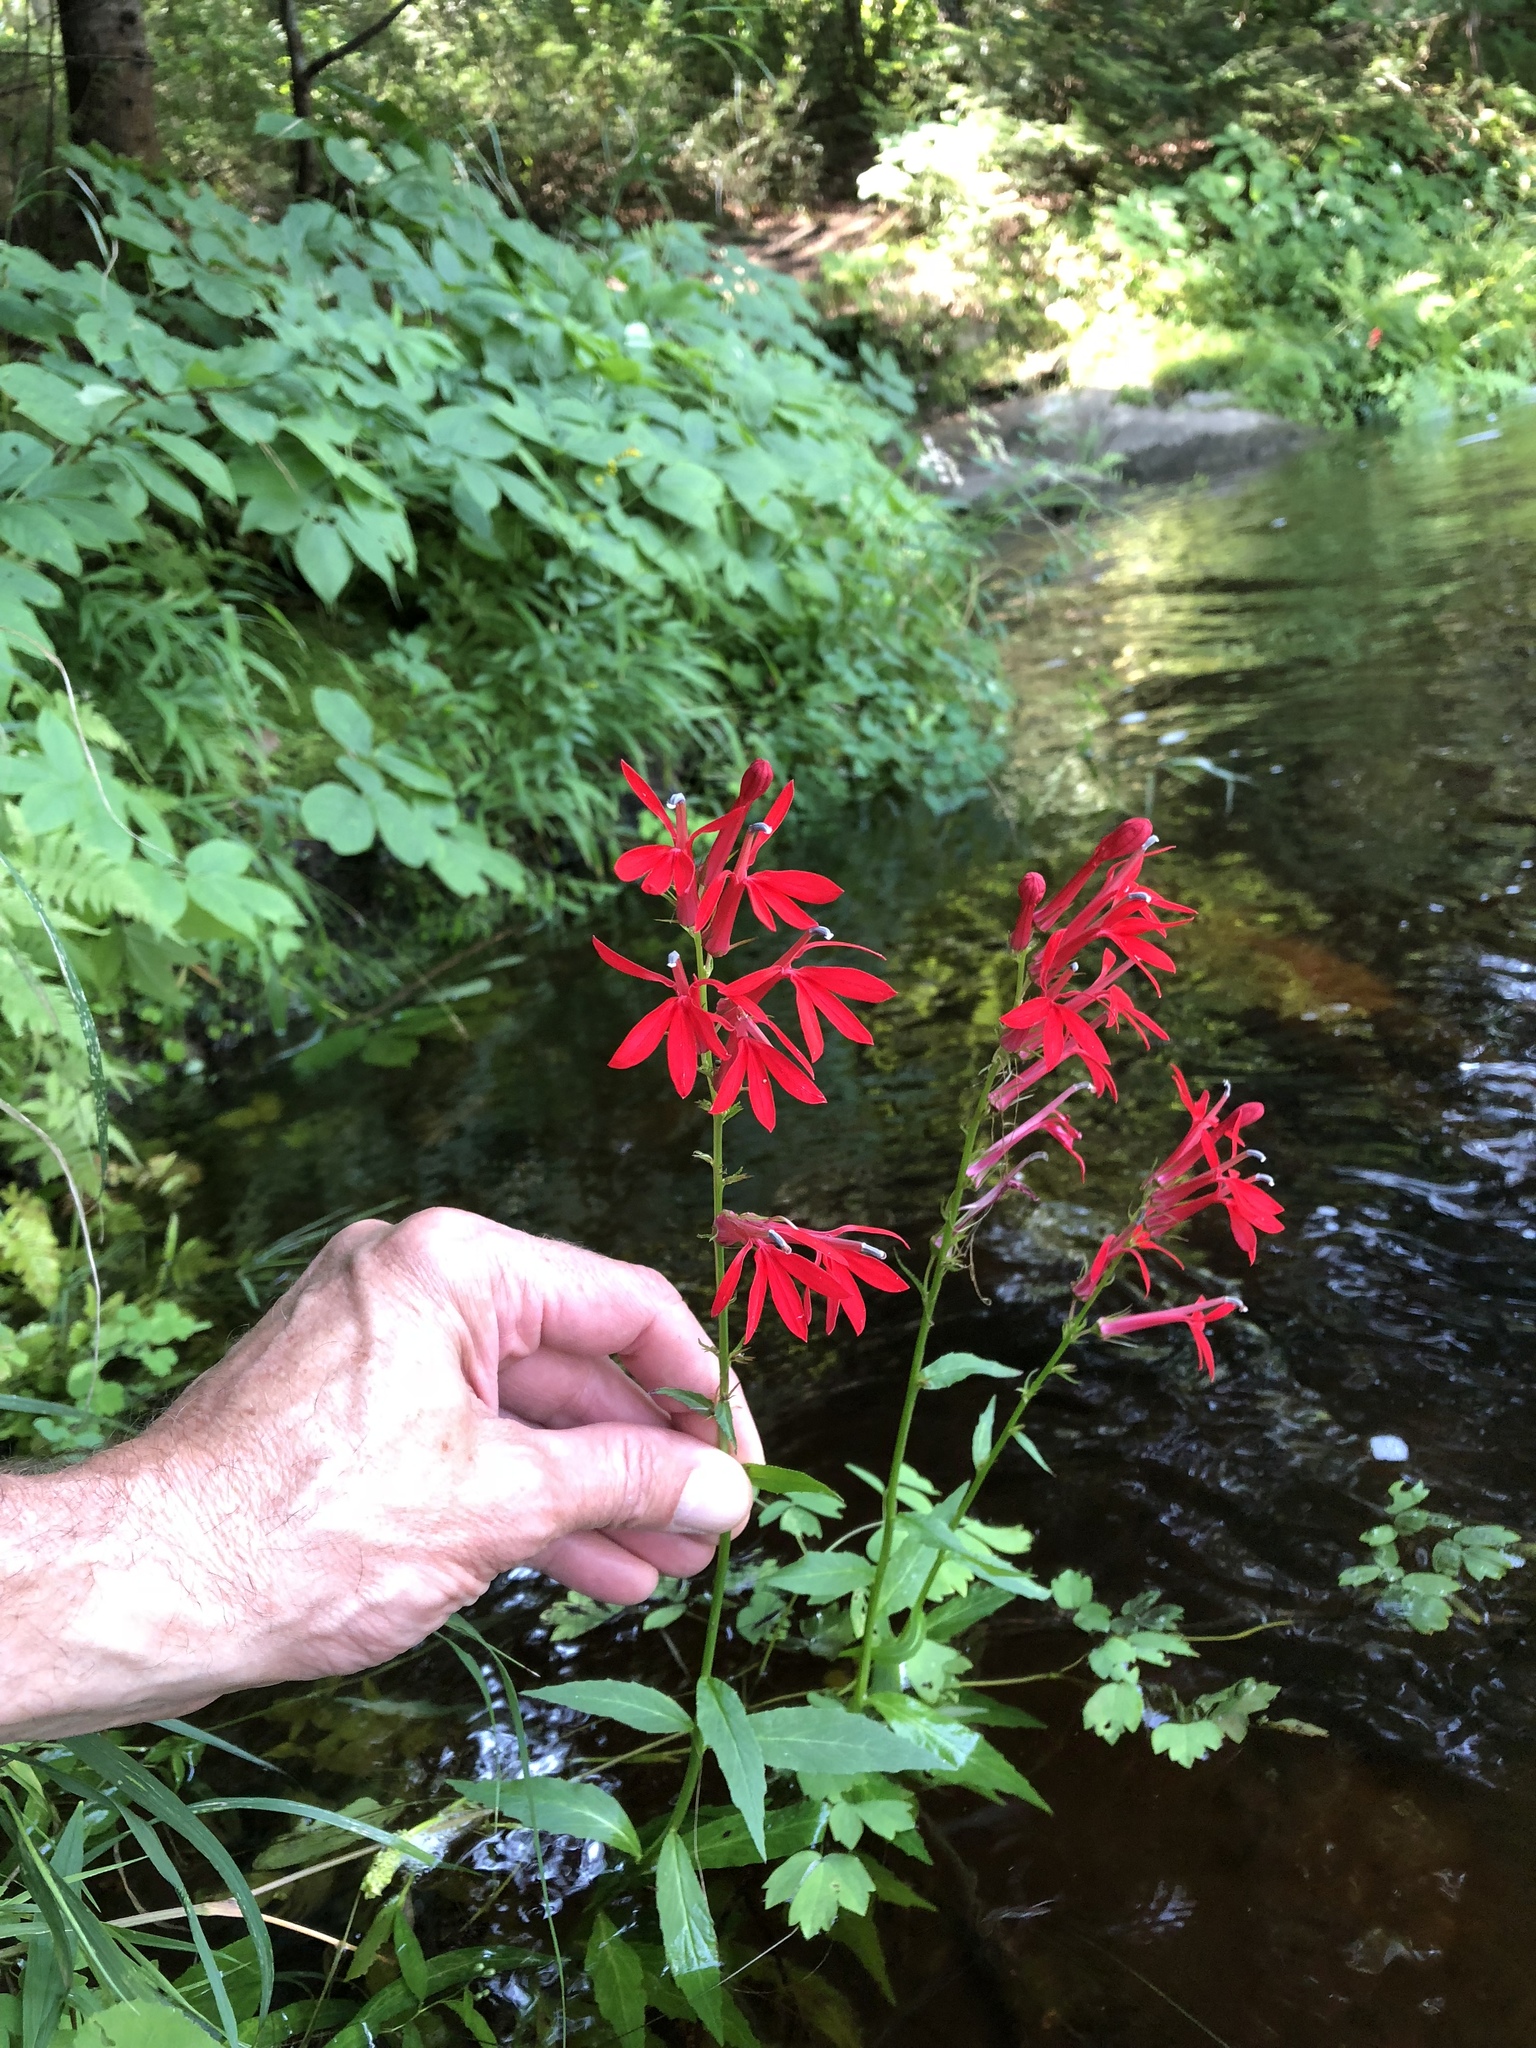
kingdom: Plantae
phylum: Tracheophyta
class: Magnoliopsida
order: Asterales
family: Campanulaceae
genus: Lobelia
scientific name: Lobelia cardinalis
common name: Cardinal flower
